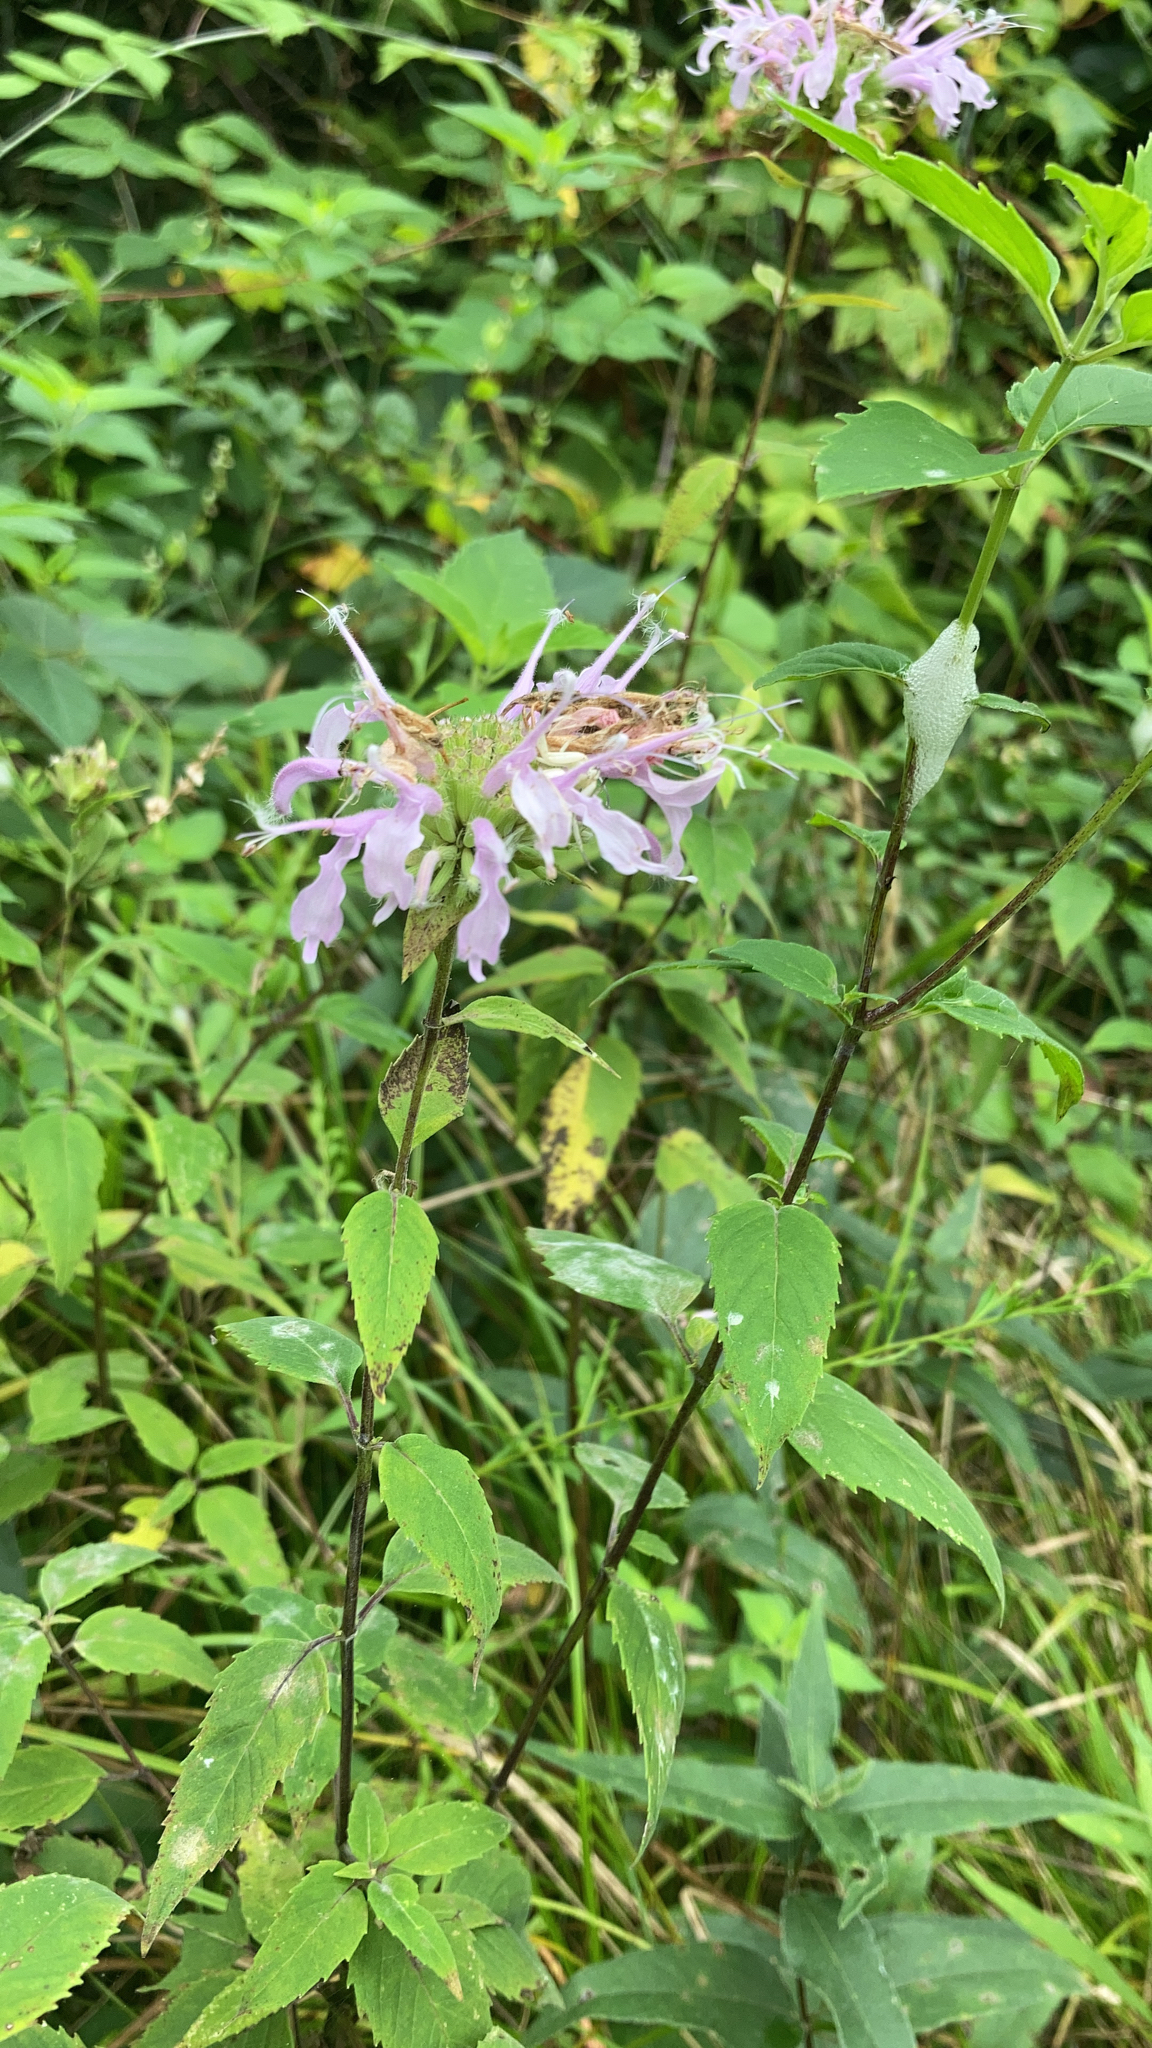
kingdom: Plantae
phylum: Tracheophyta
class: Magnoliopsida
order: Lamiales
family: Lamiaceae
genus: Monarda
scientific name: Monarda fistulosa
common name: Purple beebalm
